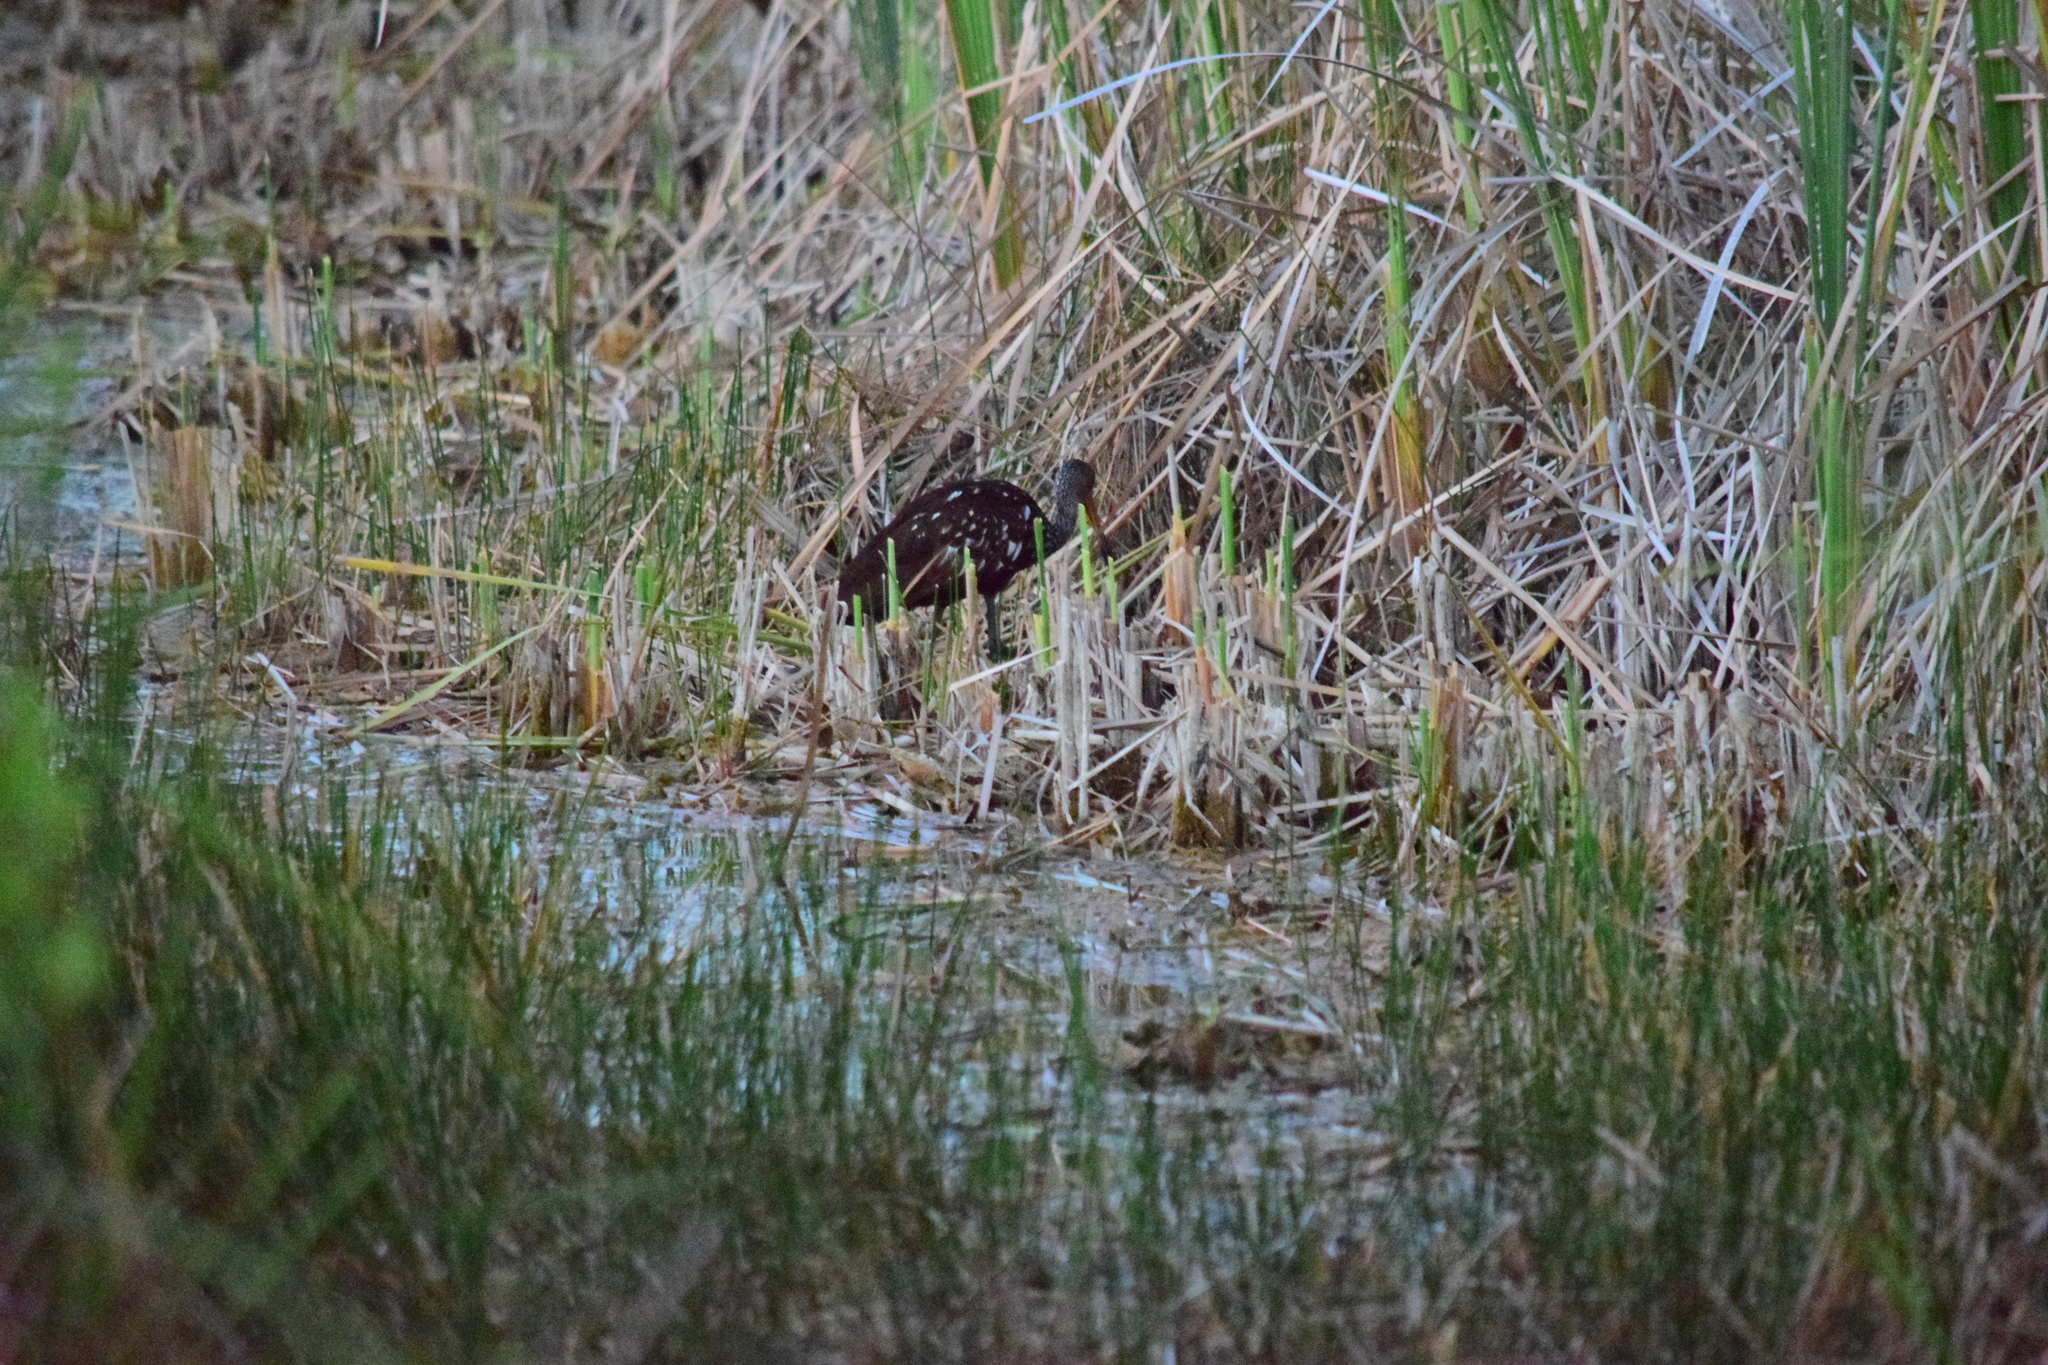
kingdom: Animalia
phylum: Chordata
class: Aves
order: Gruiformes
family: Aramidae
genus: Aramus
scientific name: Aramus guarauna
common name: Limpkin
